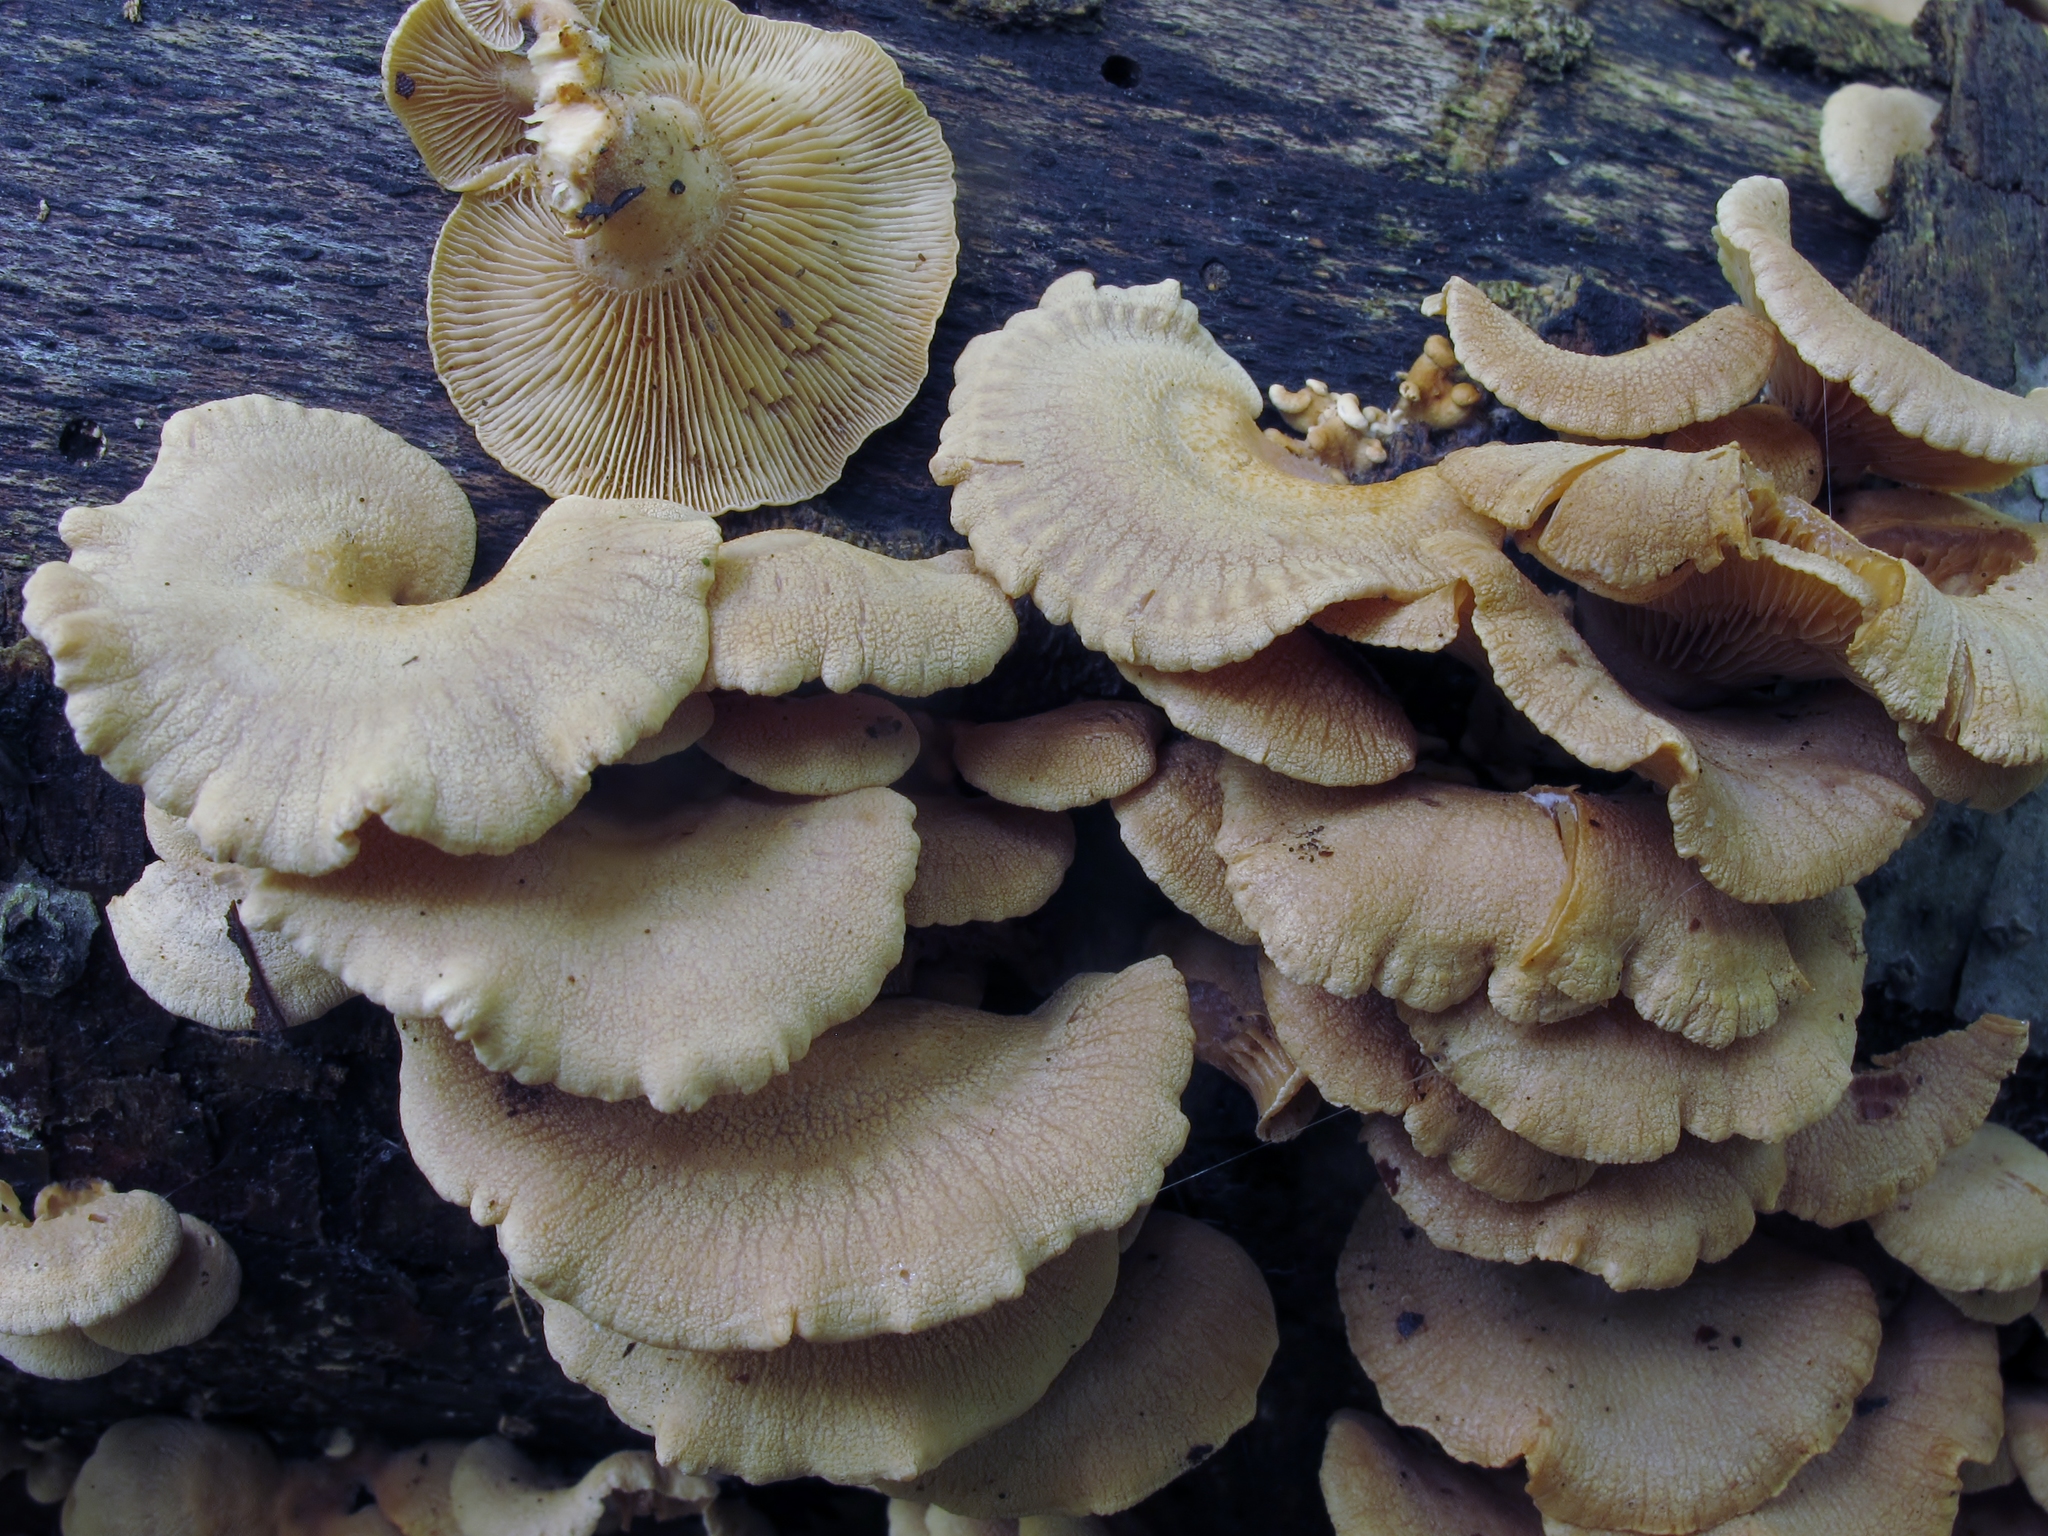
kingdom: Fungi
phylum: Basidiomycota
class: Agaricomycetes
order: Agaricales
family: Mycenaceae
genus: Panellus
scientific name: Panellus stipticus
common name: Bitter oysterling
